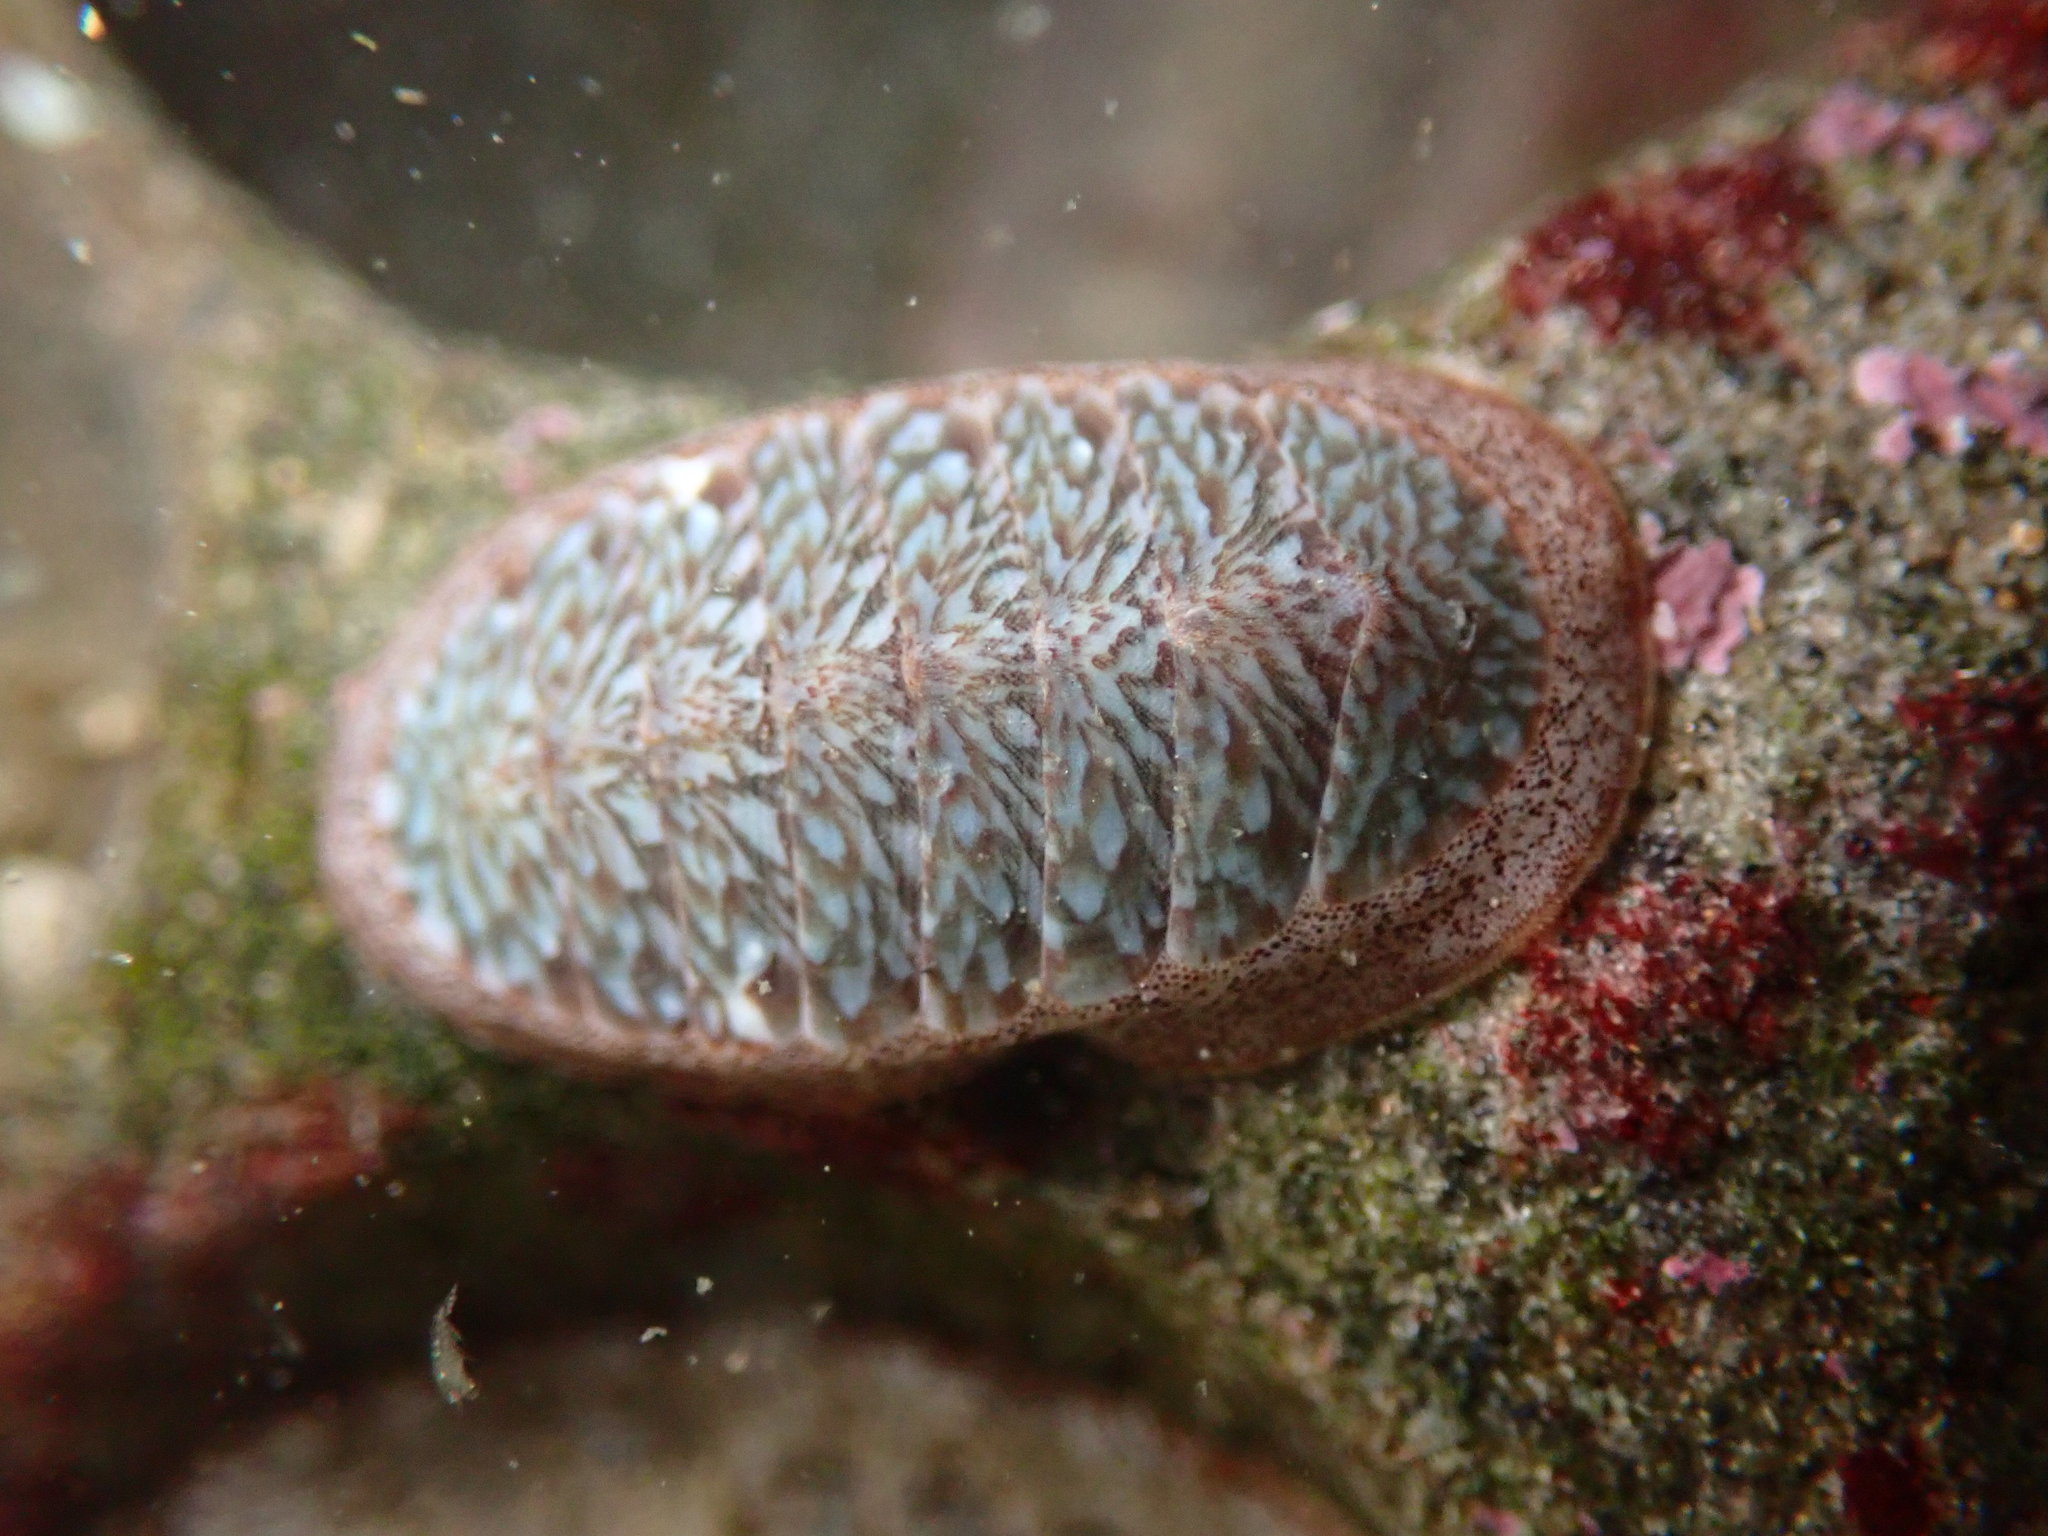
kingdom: Animalia
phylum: Mollusca
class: Polyplacophora
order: Chitonida
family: Ischnochitonidae
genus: Lepidozona
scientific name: Lepidozona radians
